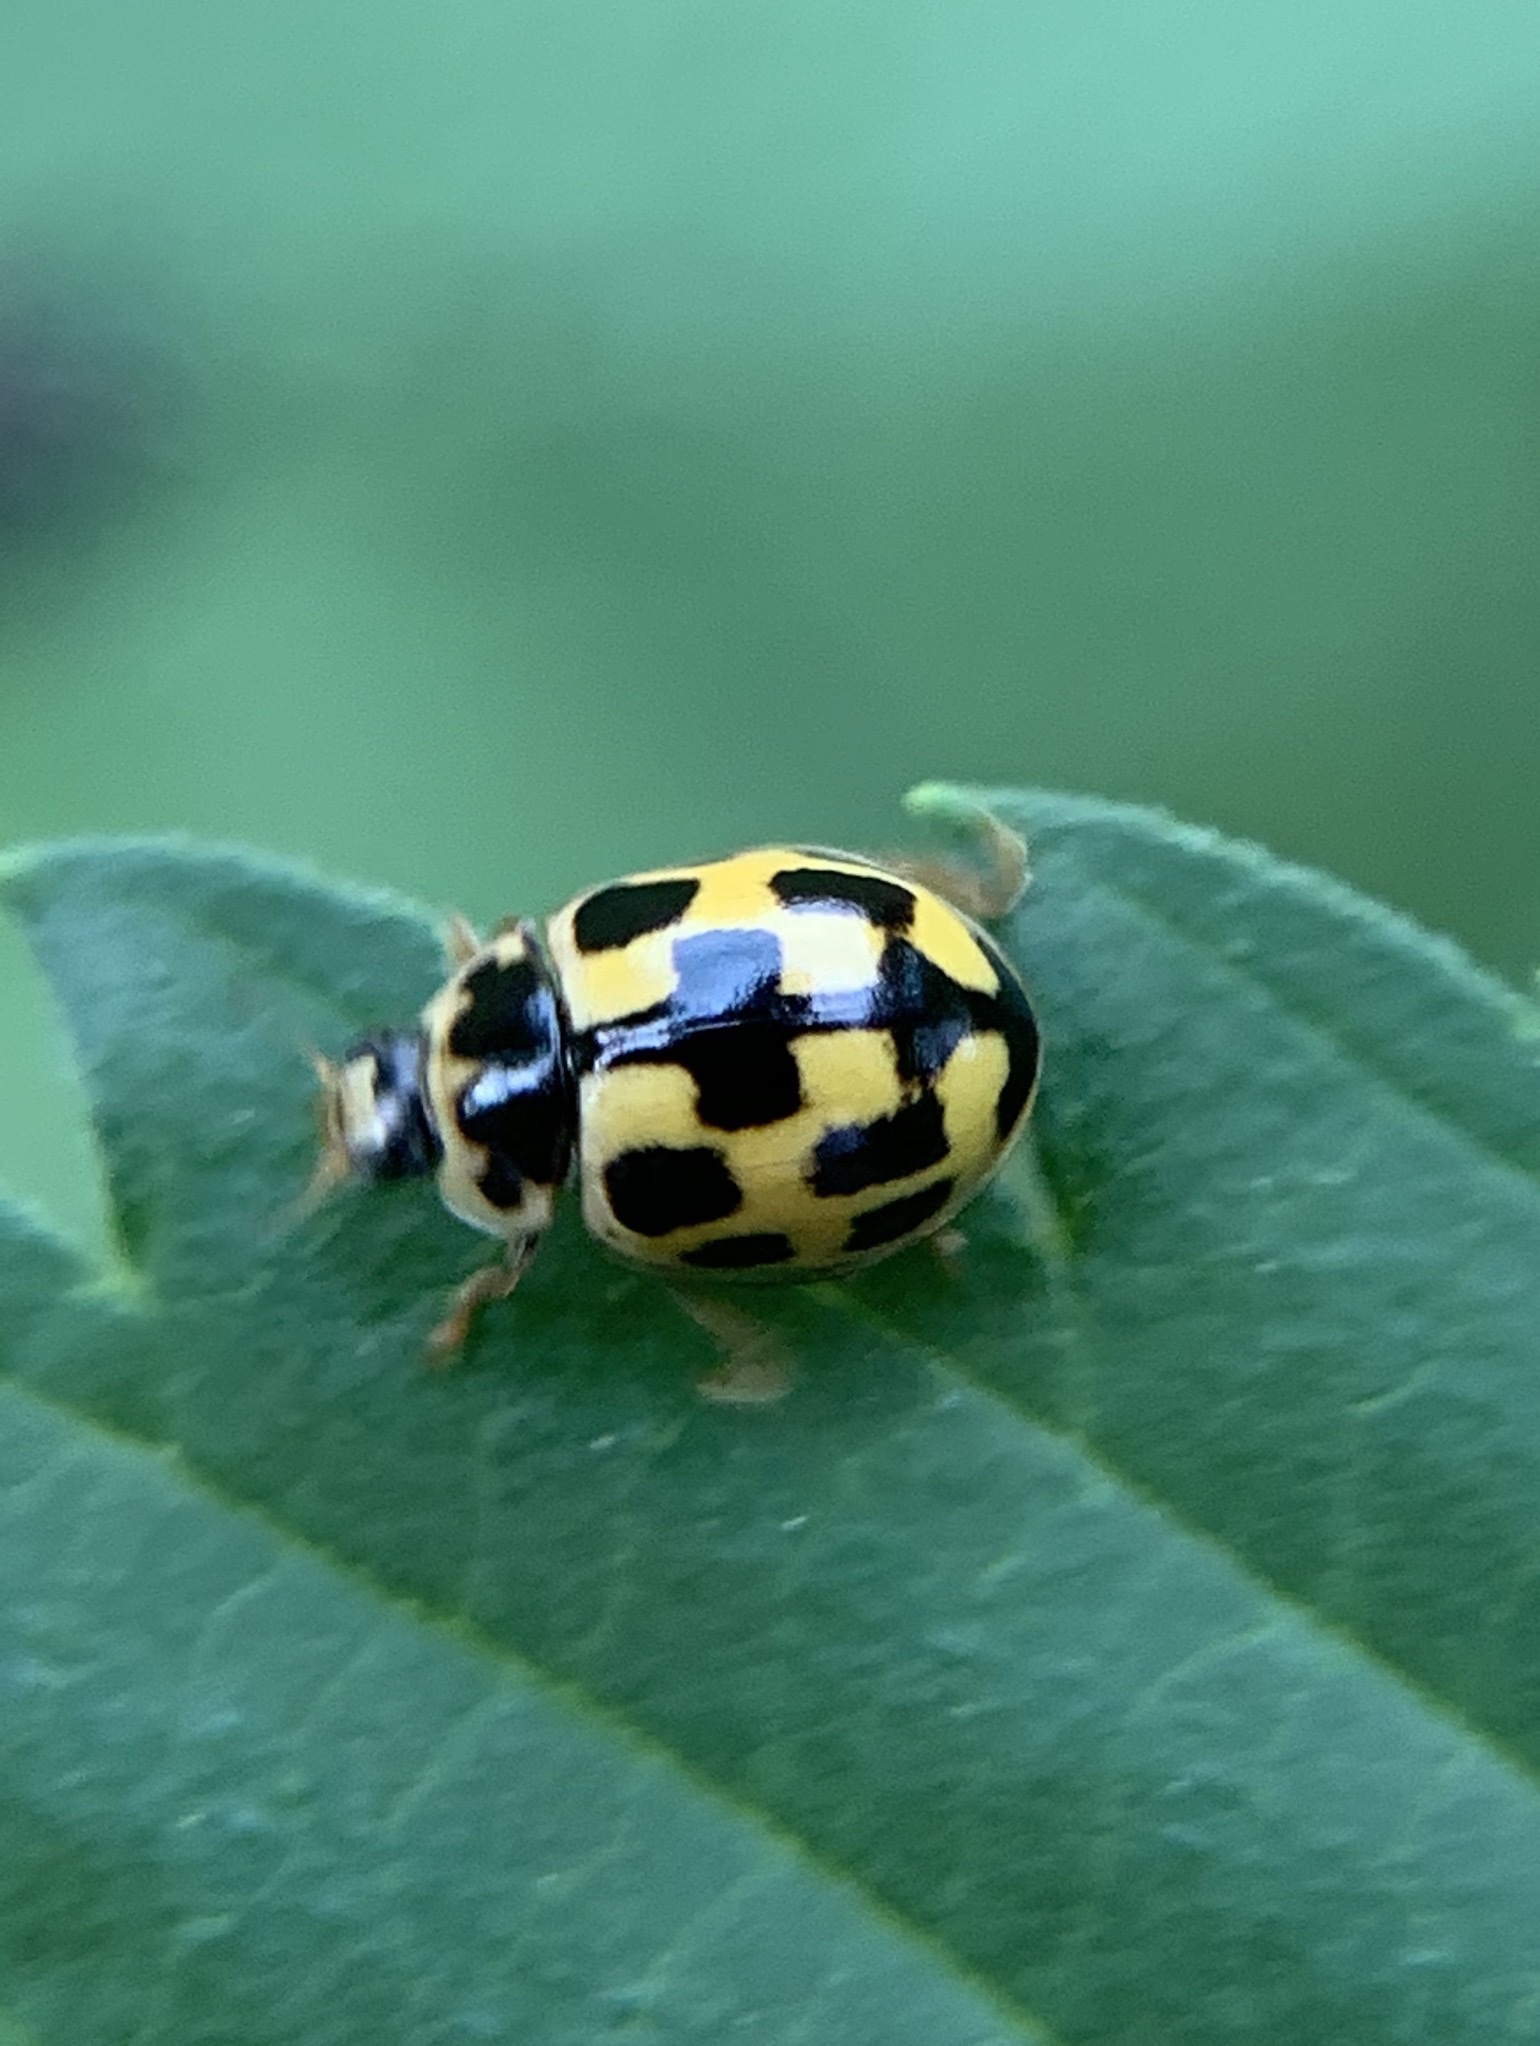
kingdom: Animalia
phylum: Arthropoda
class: Insecta
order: Coleoptera
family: Coccinellidae
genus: Propylaea
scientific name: Propylaea quatuordecimpunctata
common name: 14-spotted ladybird beetle
